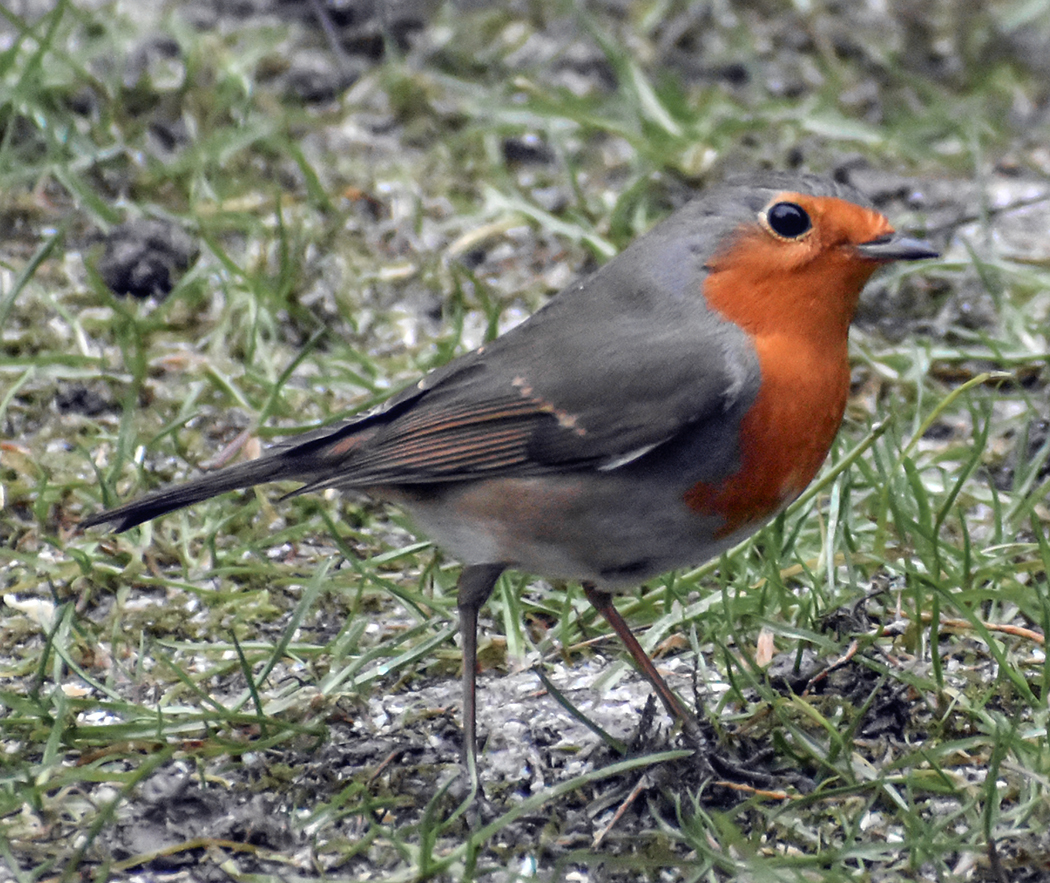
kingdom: Animalia
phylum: Chordata
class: Aves
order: Passeriformes
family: Muscicapidae
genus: Erithacus
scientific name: Erithacus rubecula
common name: European robin
